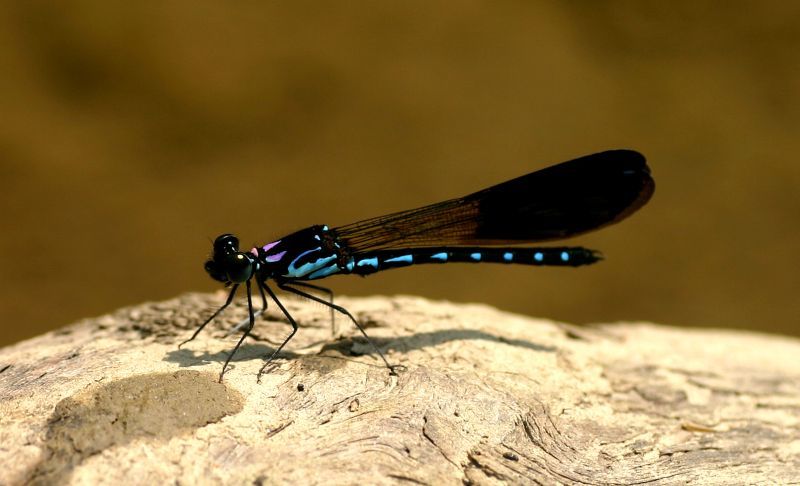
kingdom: Animalia
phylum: Arthropoda
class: Insecta
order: Odonata
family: Chlorocyphidae
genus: Heliocypha
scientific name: Heliocypha perforata
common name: Common blue jewel
